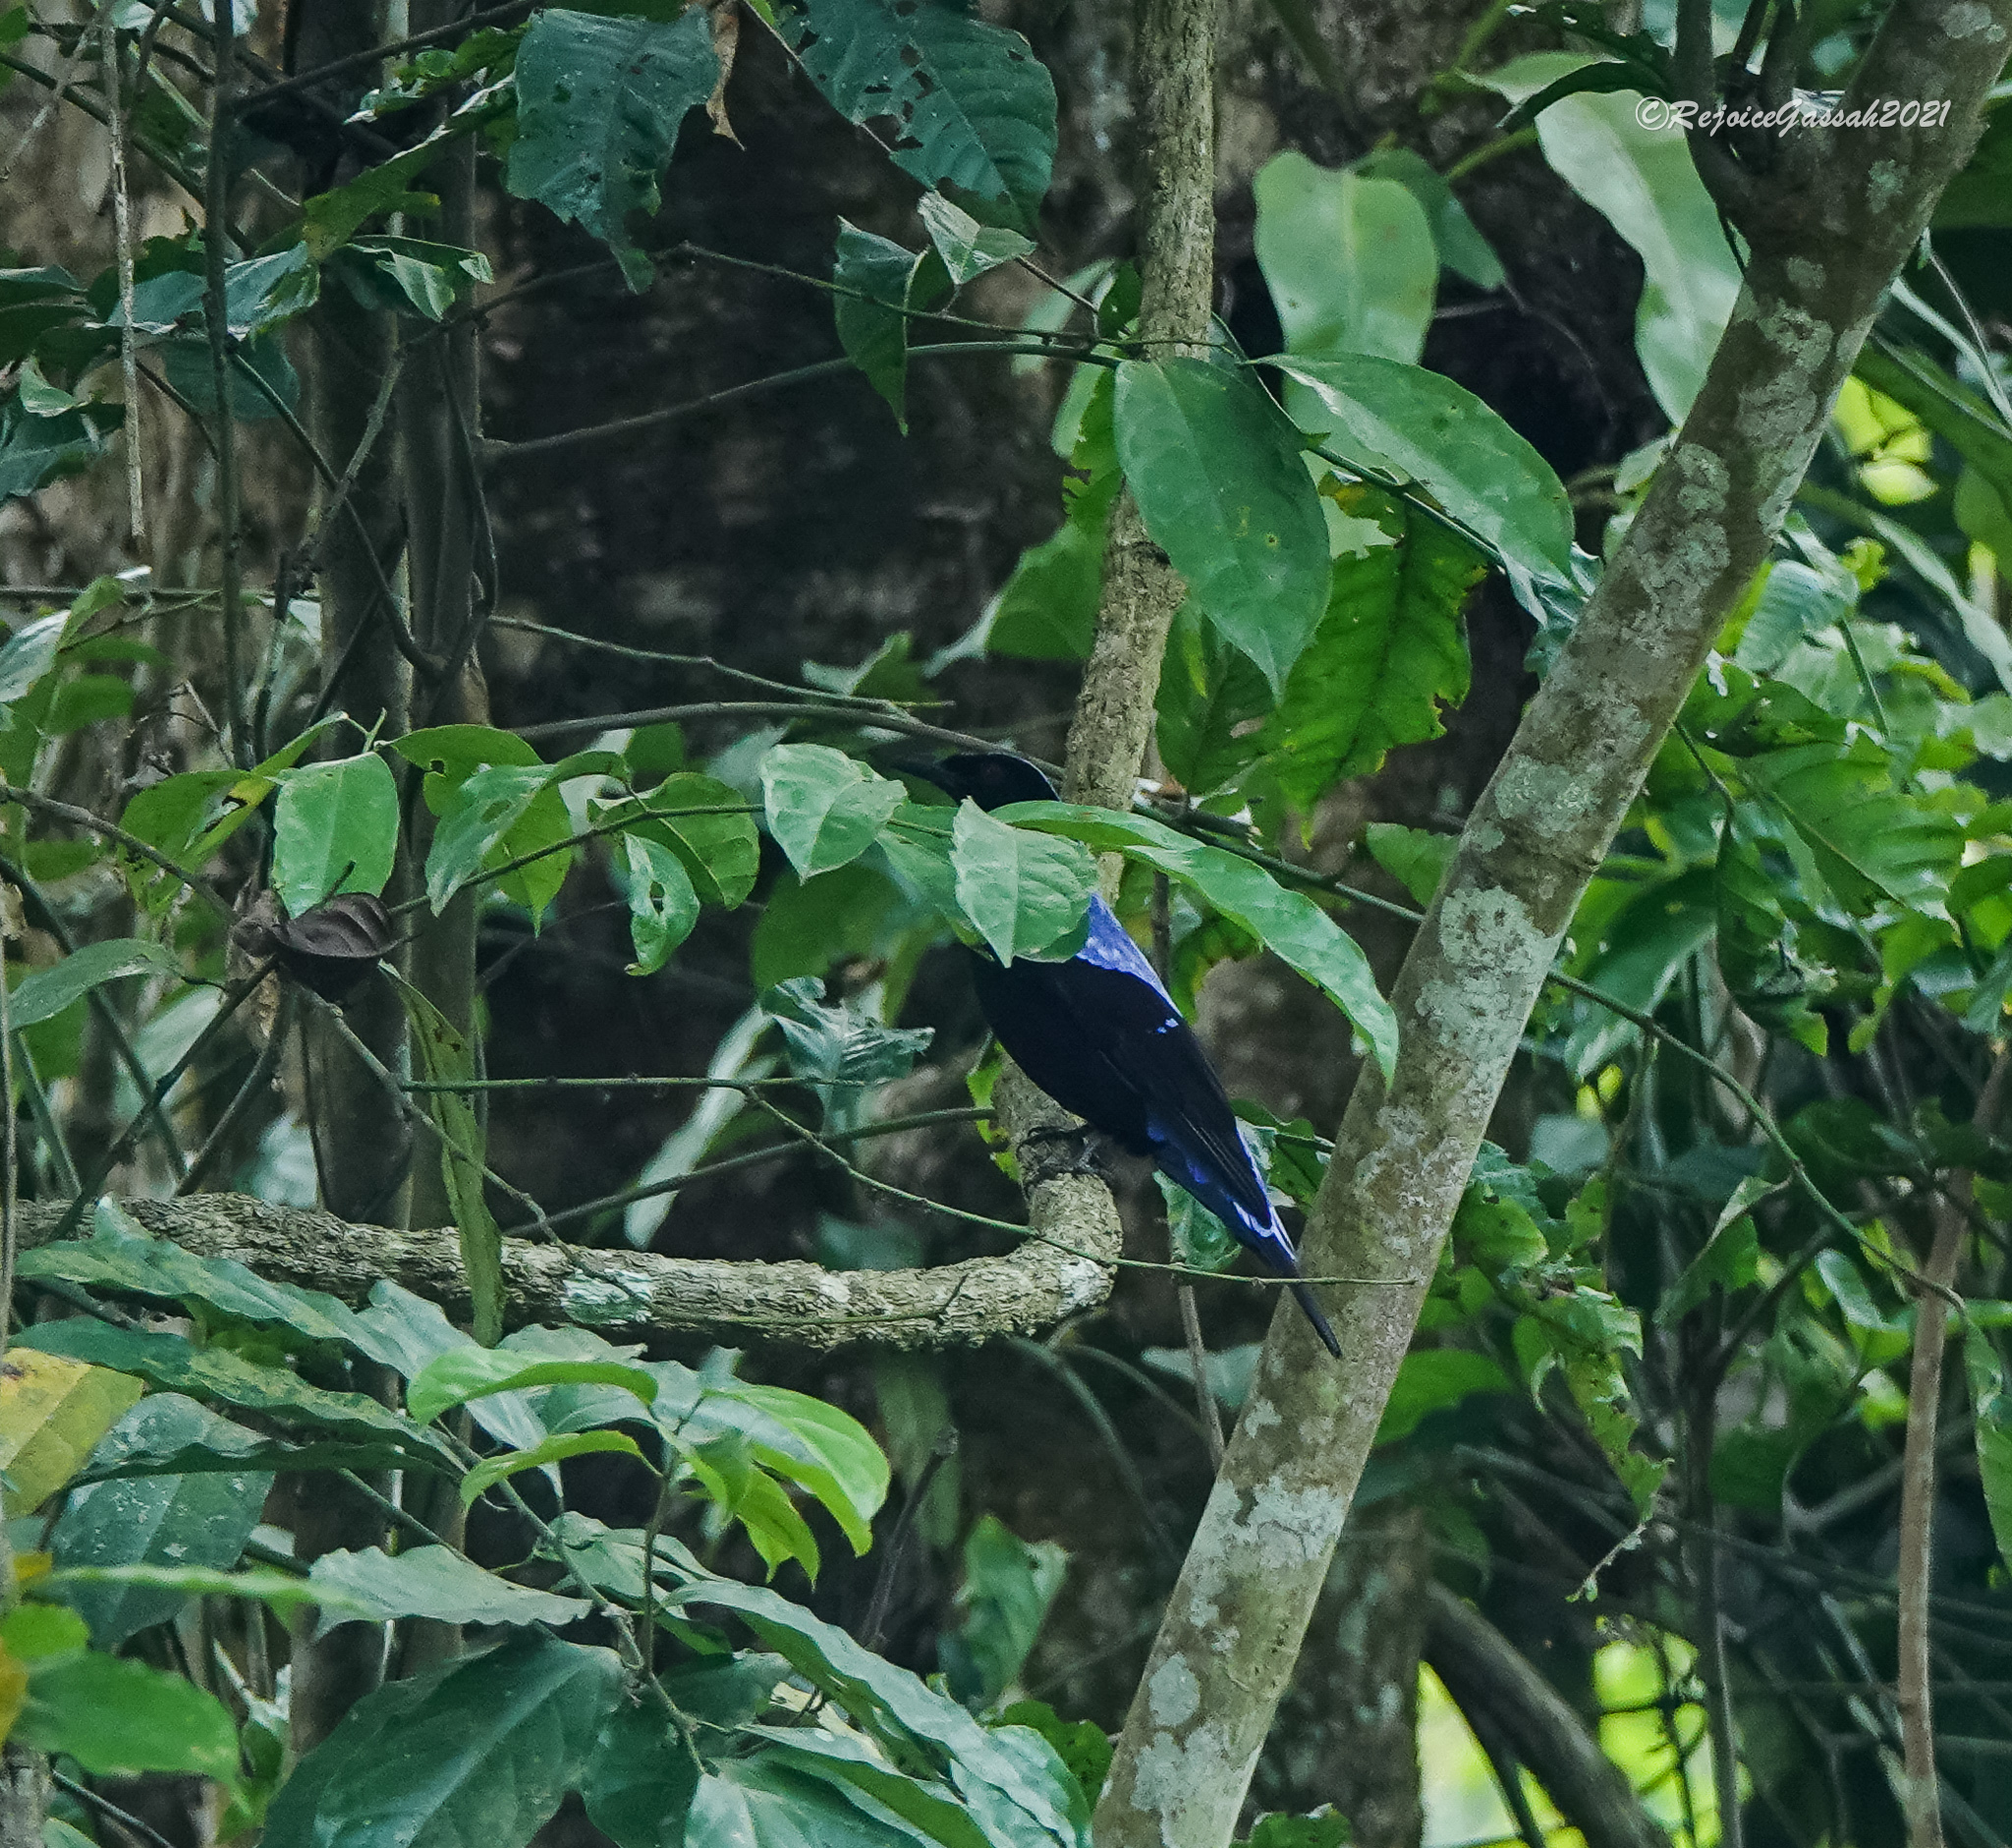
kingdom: Animalia
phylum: Chordata
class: Aves
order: Passeriformes
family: Irenidae
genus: Irena
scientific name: Irena puella
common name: Asian fairy-bluebird
